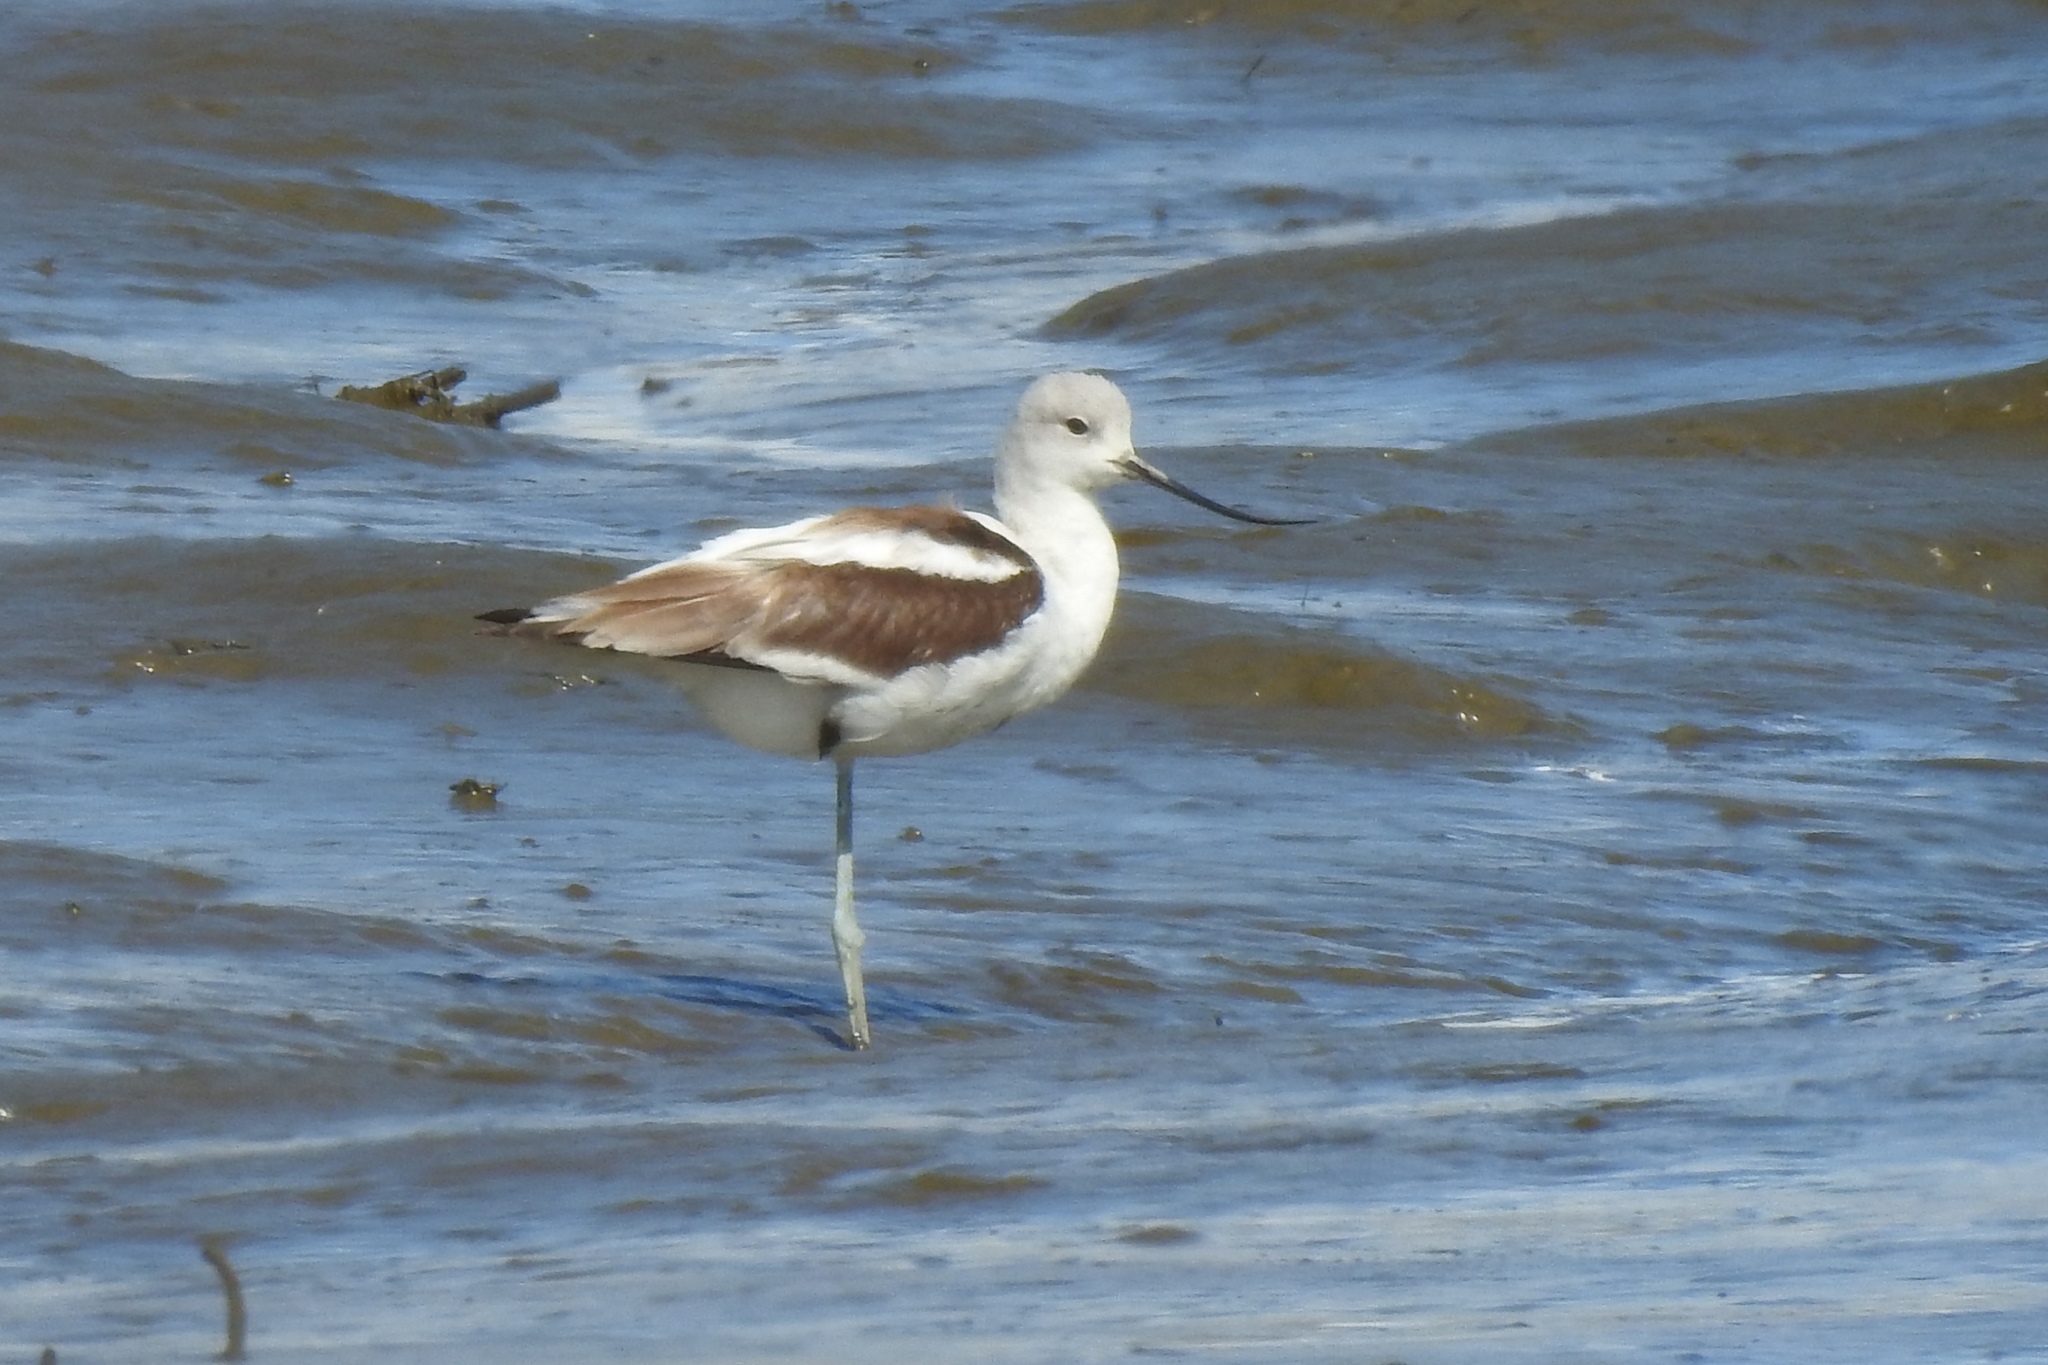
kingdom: Animalia
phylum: Chordata
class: Aves
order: Charadriiformes
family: Recurvirostridae
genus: Recurvirostra
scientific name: Recurvirostra americana
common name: American avocet
